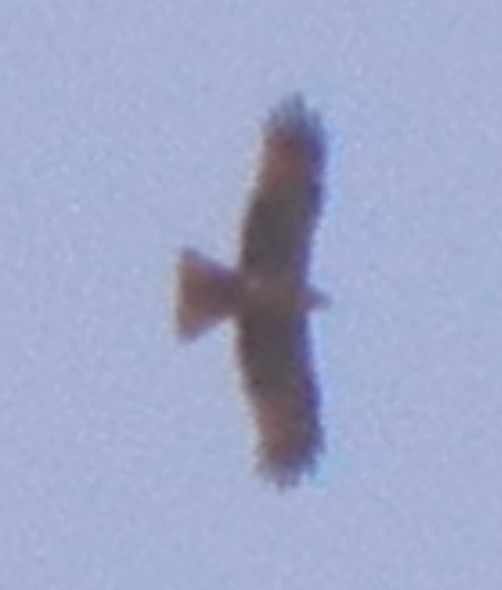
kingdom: Animalia
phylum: Chordata
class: Aves
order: Accipitriformes
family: Accipitridae
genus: Milvus
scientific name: Milvus migrans
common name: Black kite
